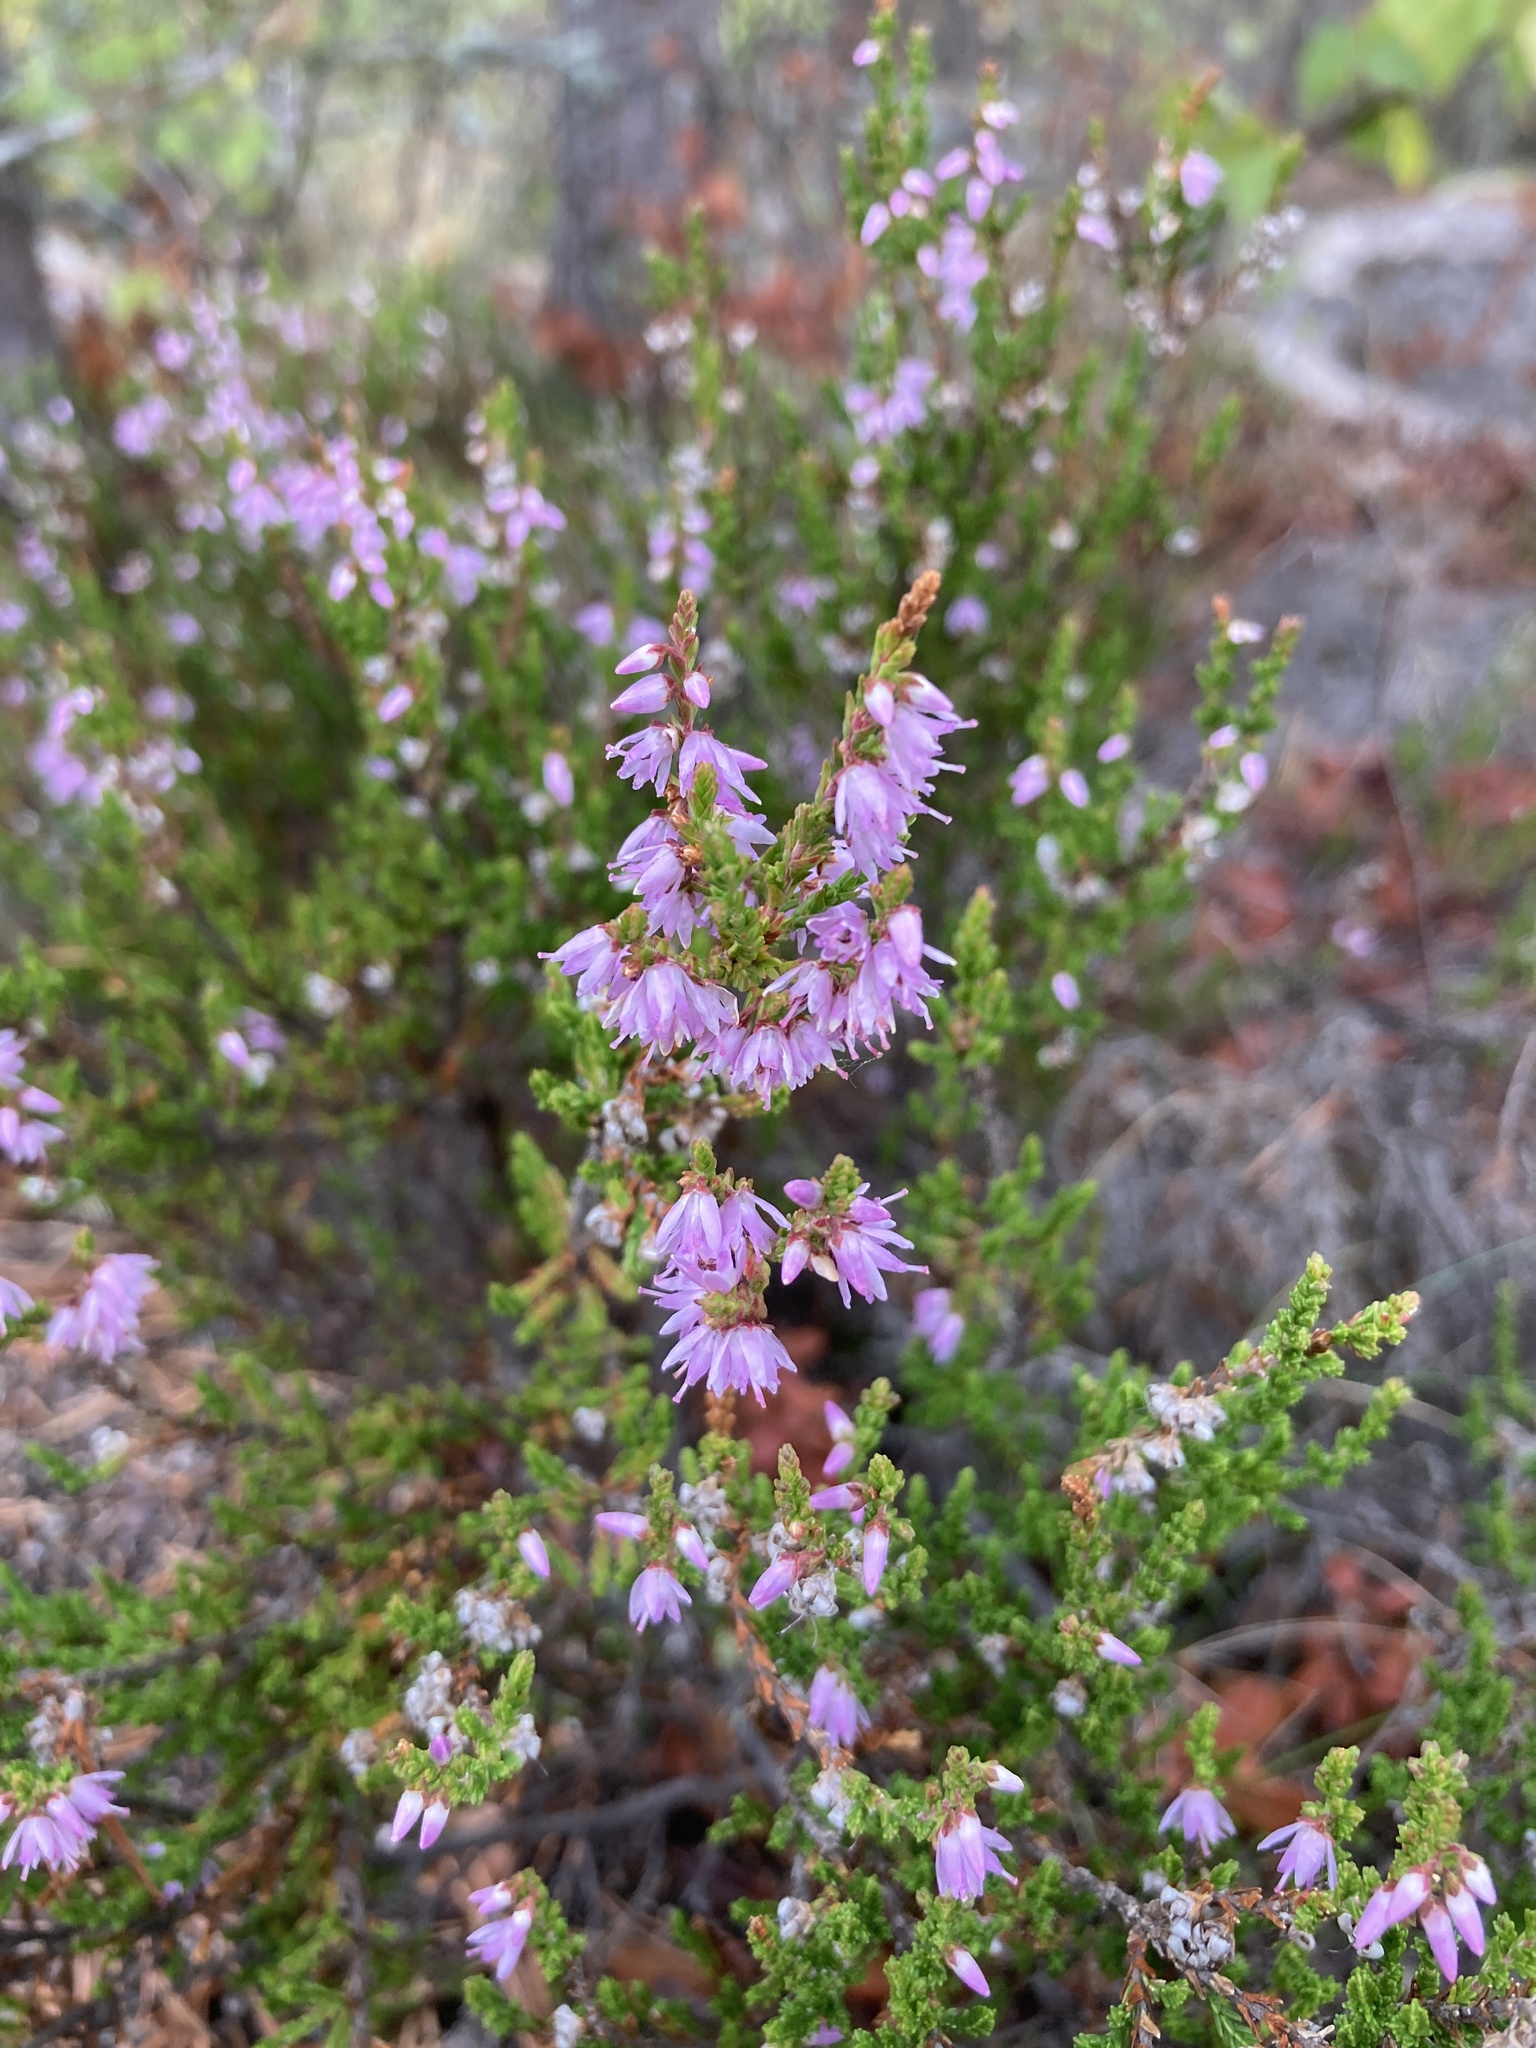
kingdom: Plantae
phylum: Tracheophyta
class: Magnoliopsida
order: Ericales
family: Ericaceae
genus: Calluna
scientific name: Calluna vulgaris
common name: Heather
